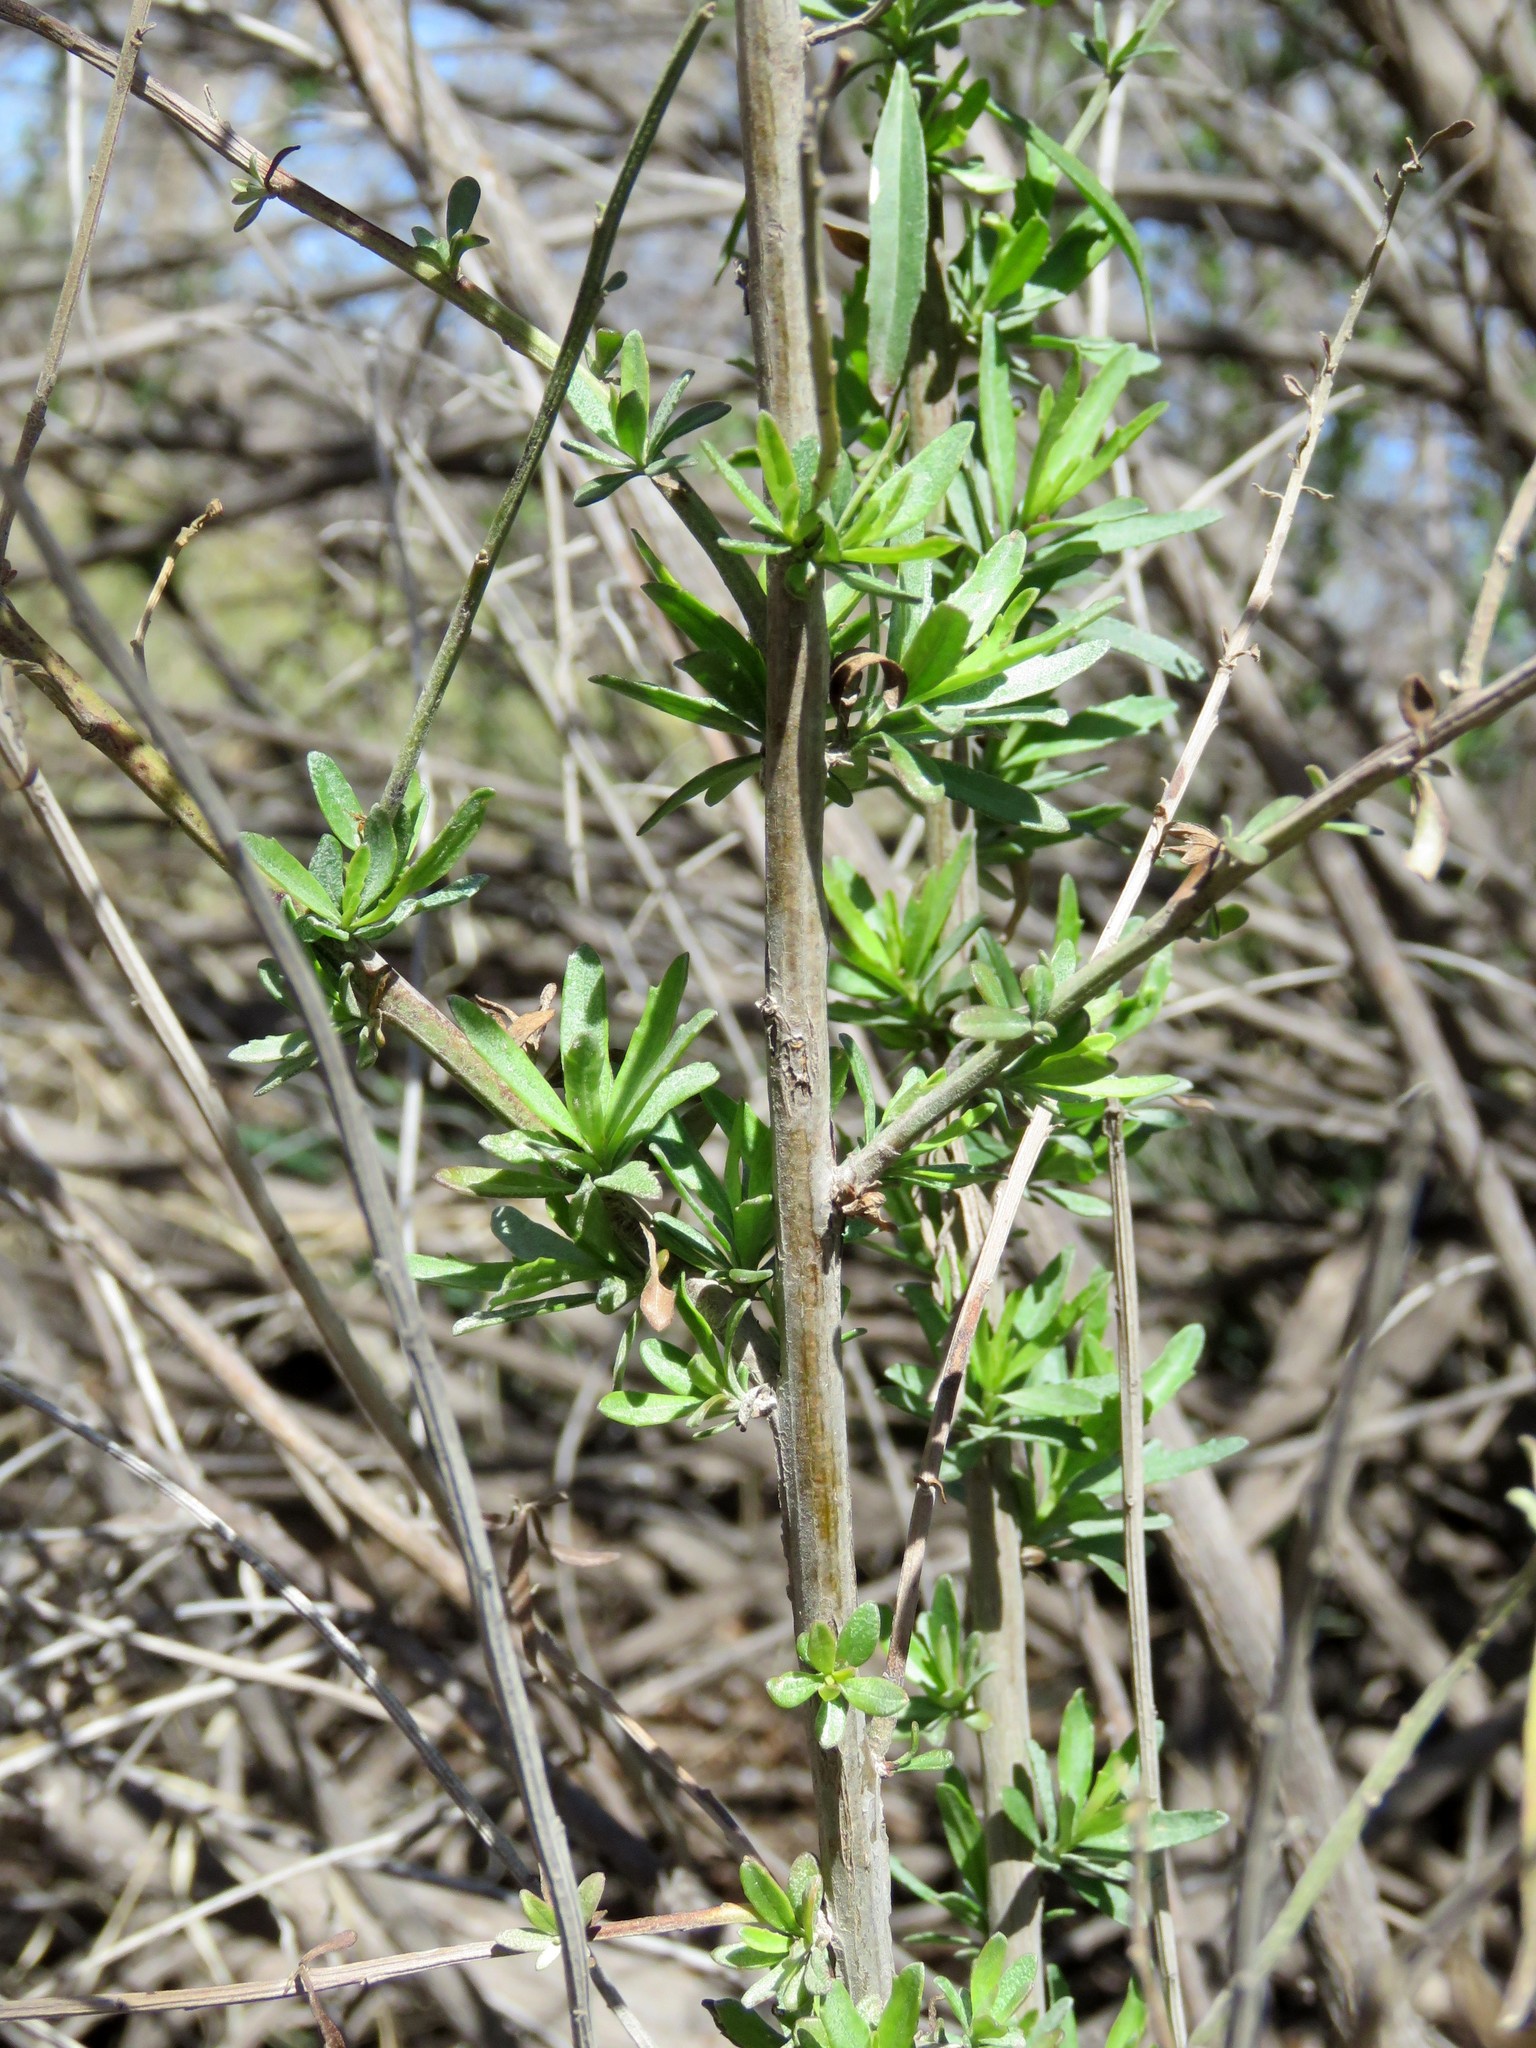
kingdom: Plantae
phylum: Tracheophyta
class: Magnoliopsida
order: Asterales
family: Asteraceae
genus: Baccharis
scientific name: Baccharis salicina
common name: Willow baccharis
